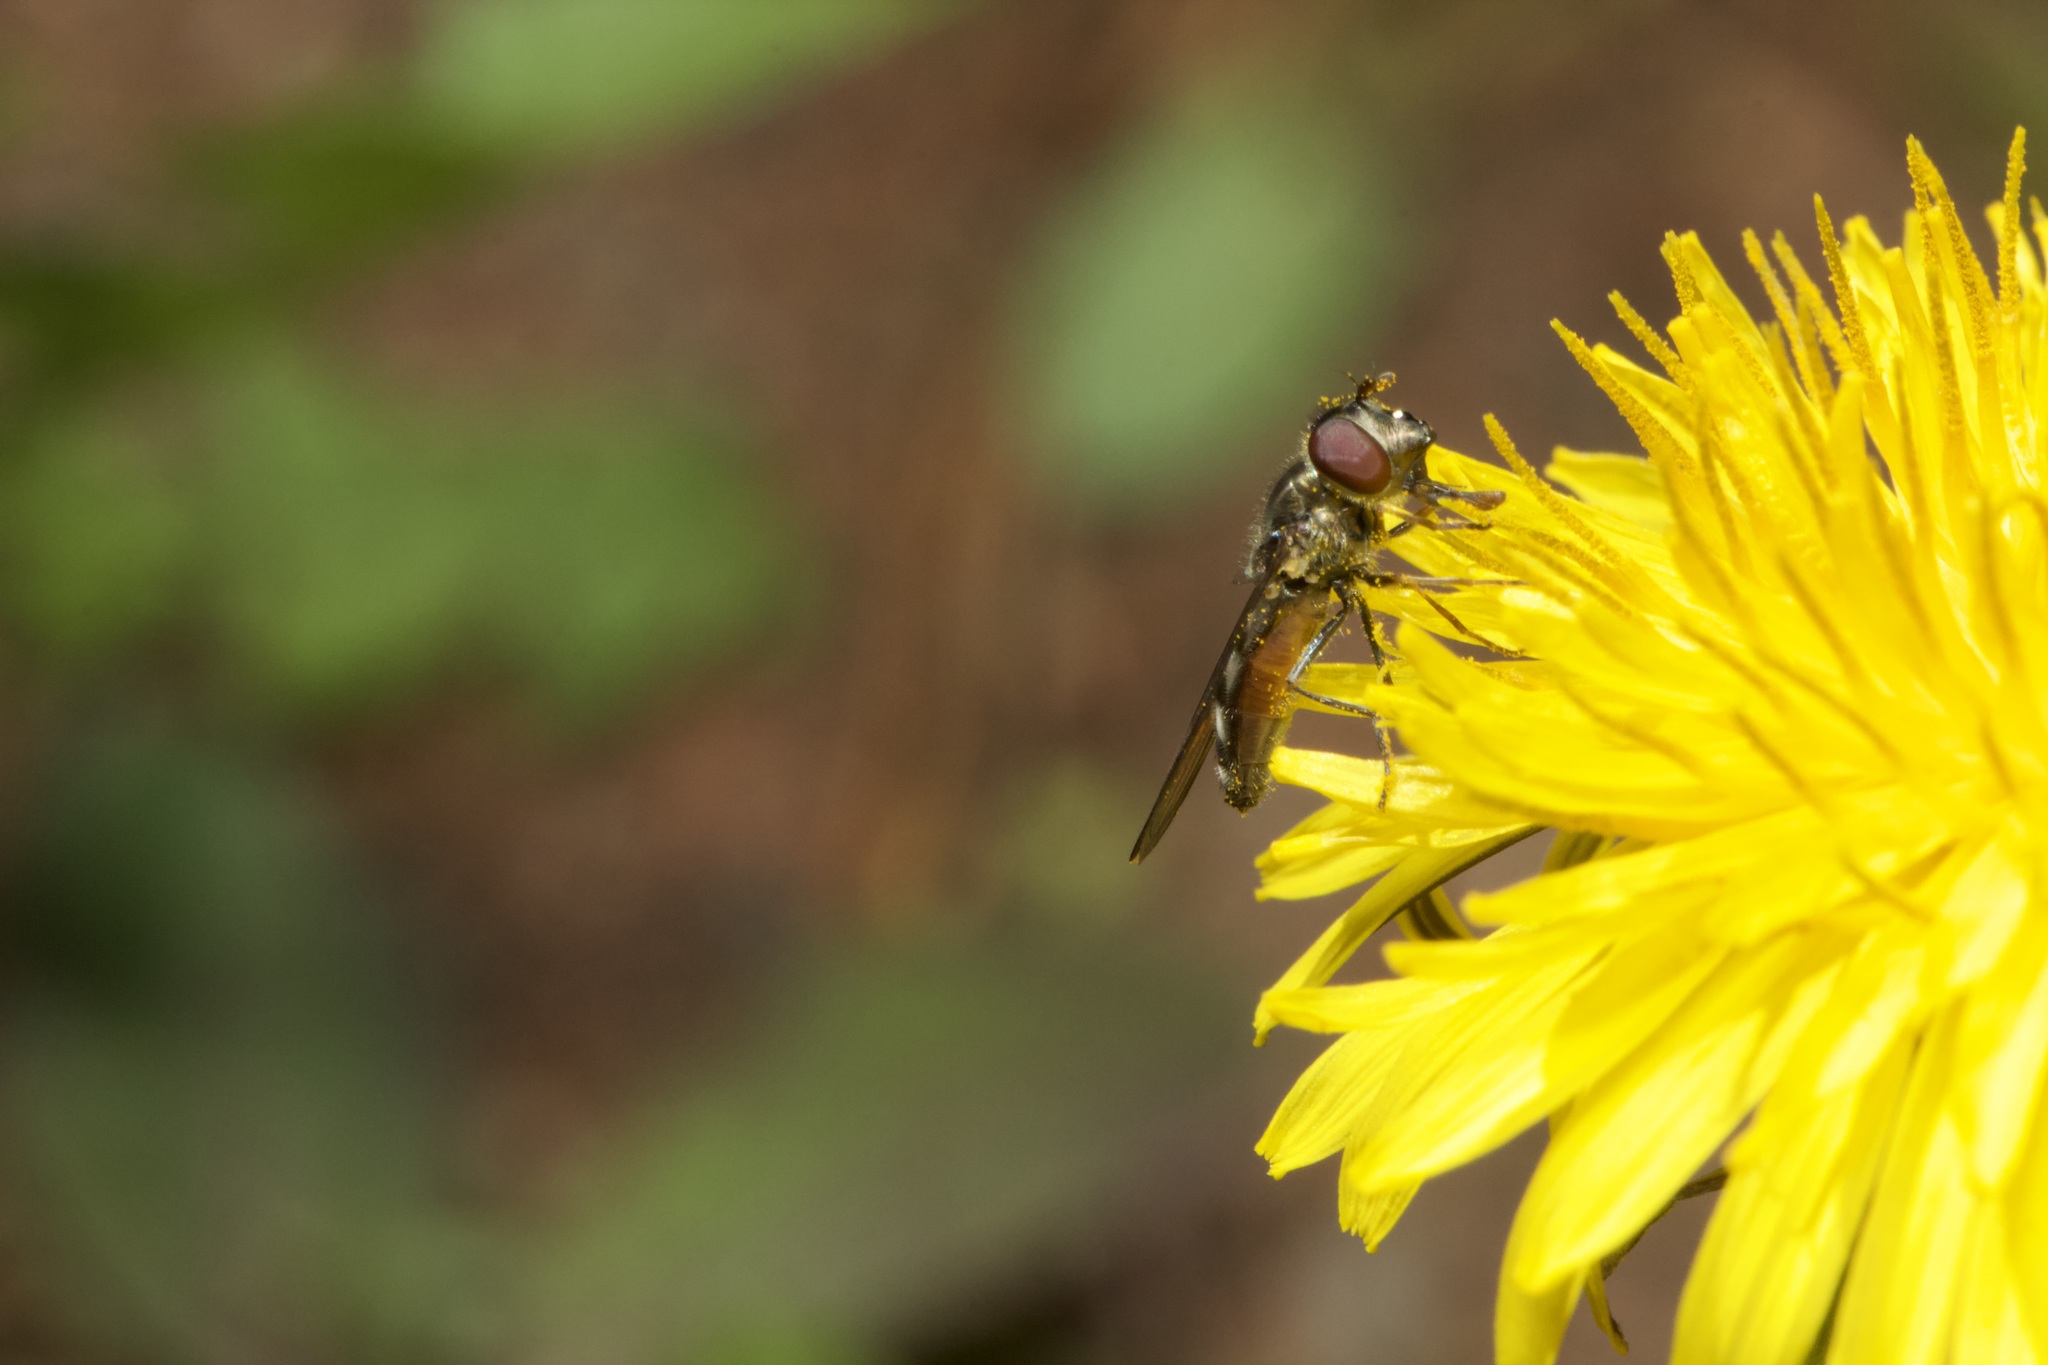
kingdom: Animalia
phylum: Arthropoda
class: Insecta
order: Diptera
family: Syrphidae
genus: Platycheirus
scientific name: Platycheirus trichopus
